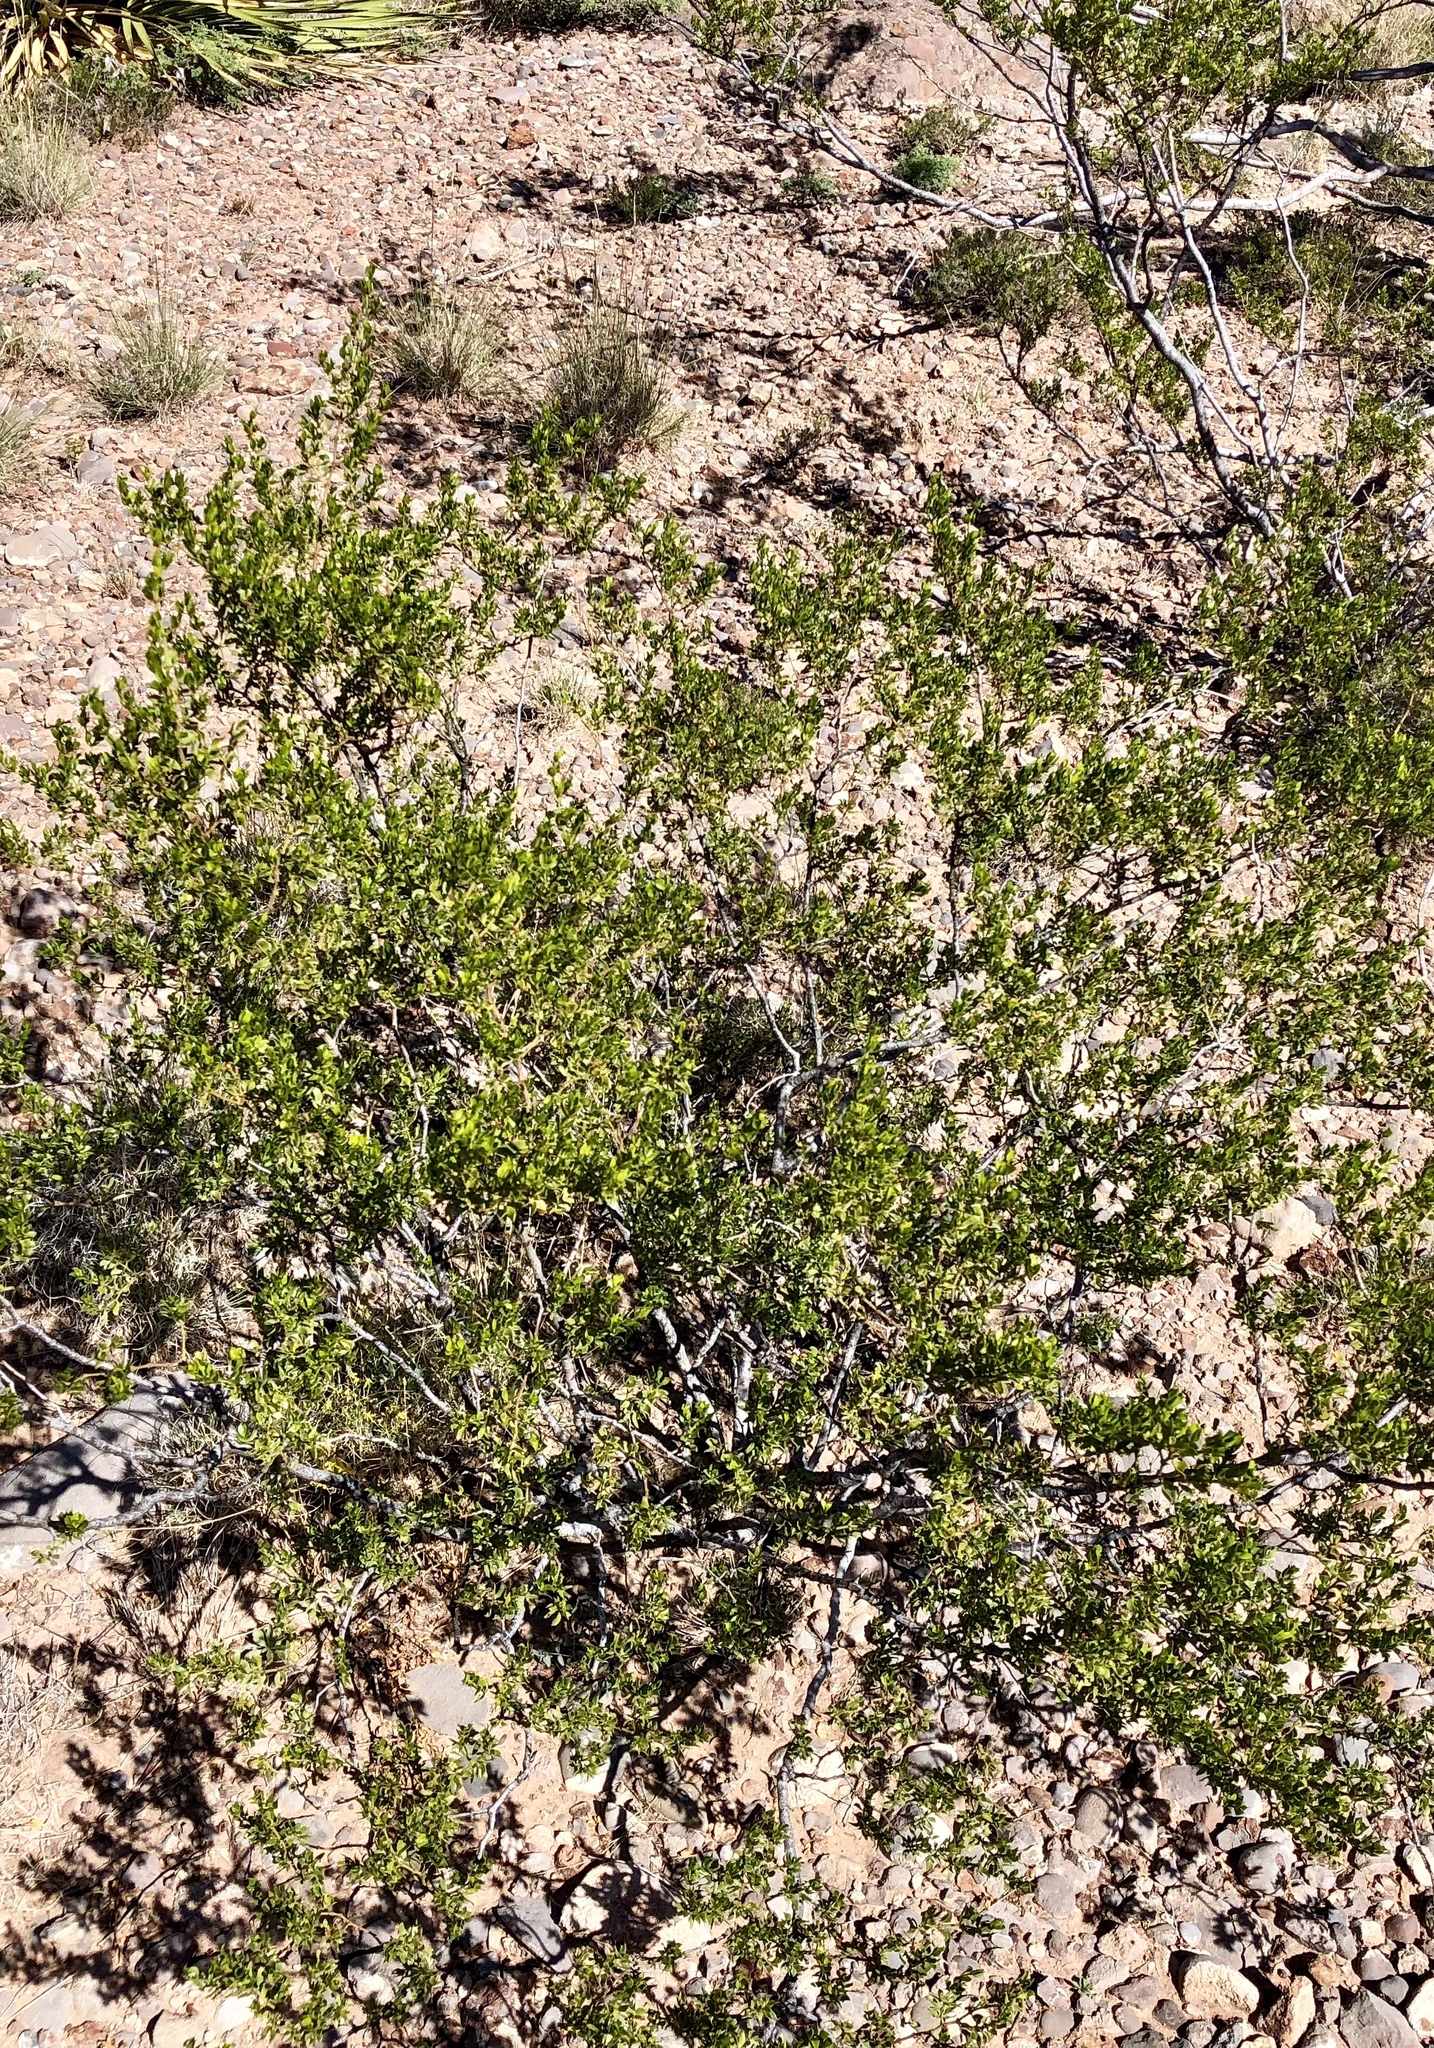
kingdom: Plantae
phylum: Tracheophyta
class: Magnoliopsida
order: Zygophyllales
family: Zygophyllaceae
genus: Larrea
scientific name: Larrea tridentata
